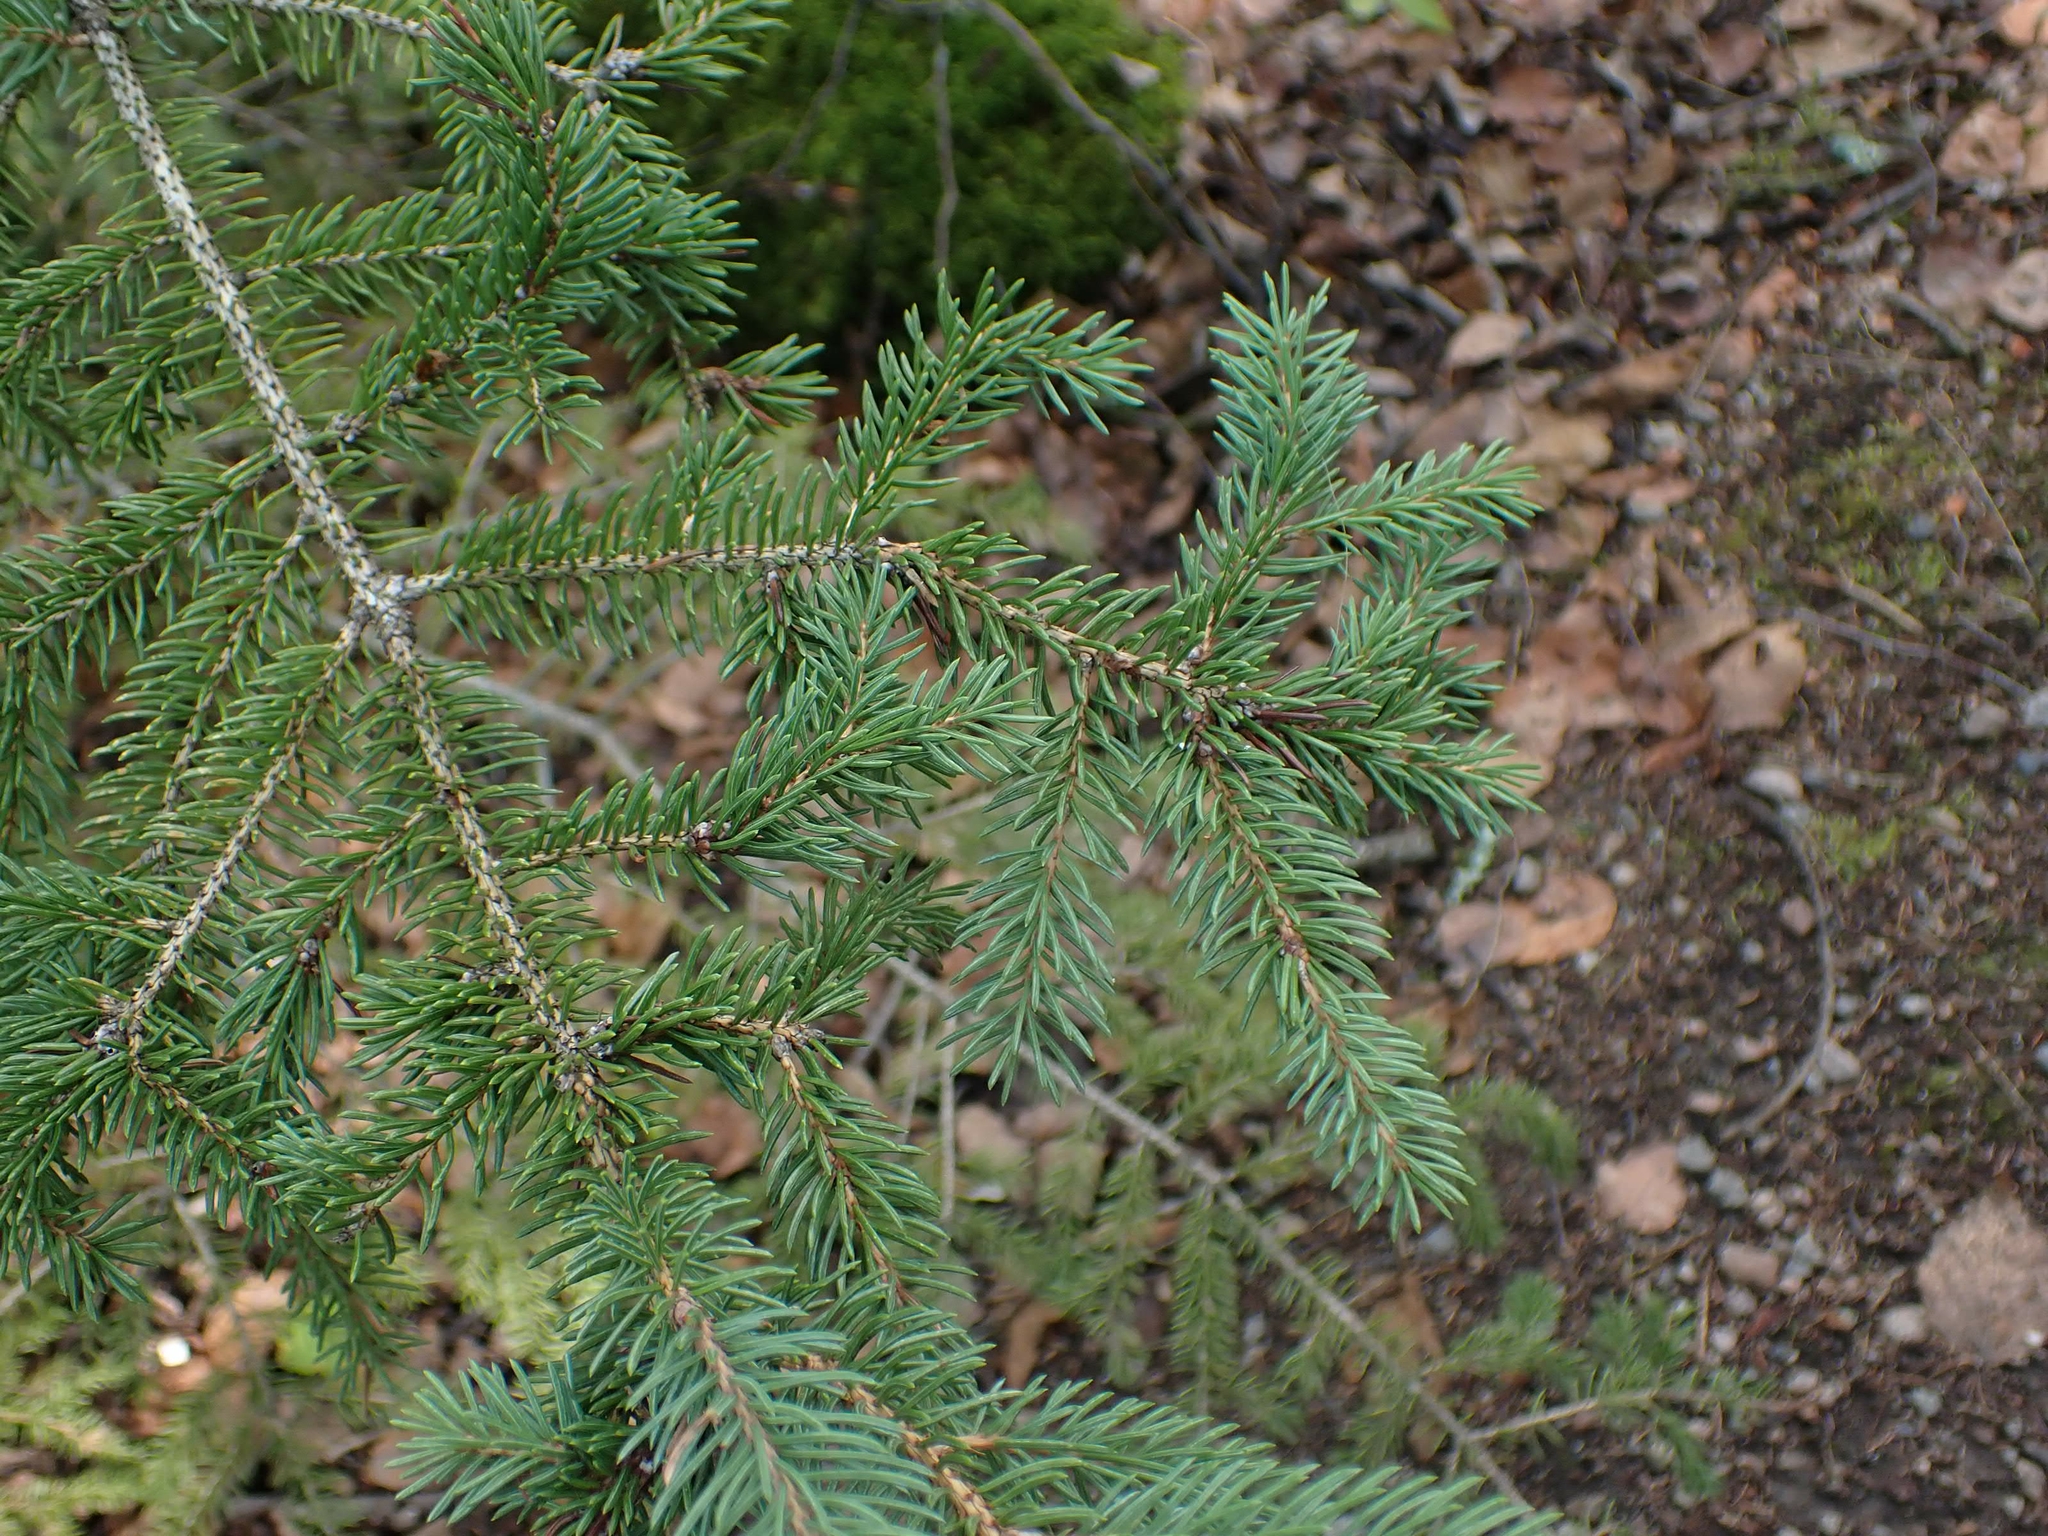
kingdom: Plantae
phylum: Tracheophyta
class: Pinopsida
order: Pinales
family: Pinaceae
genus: Picea
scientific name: Picea glauca
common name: White spruce
